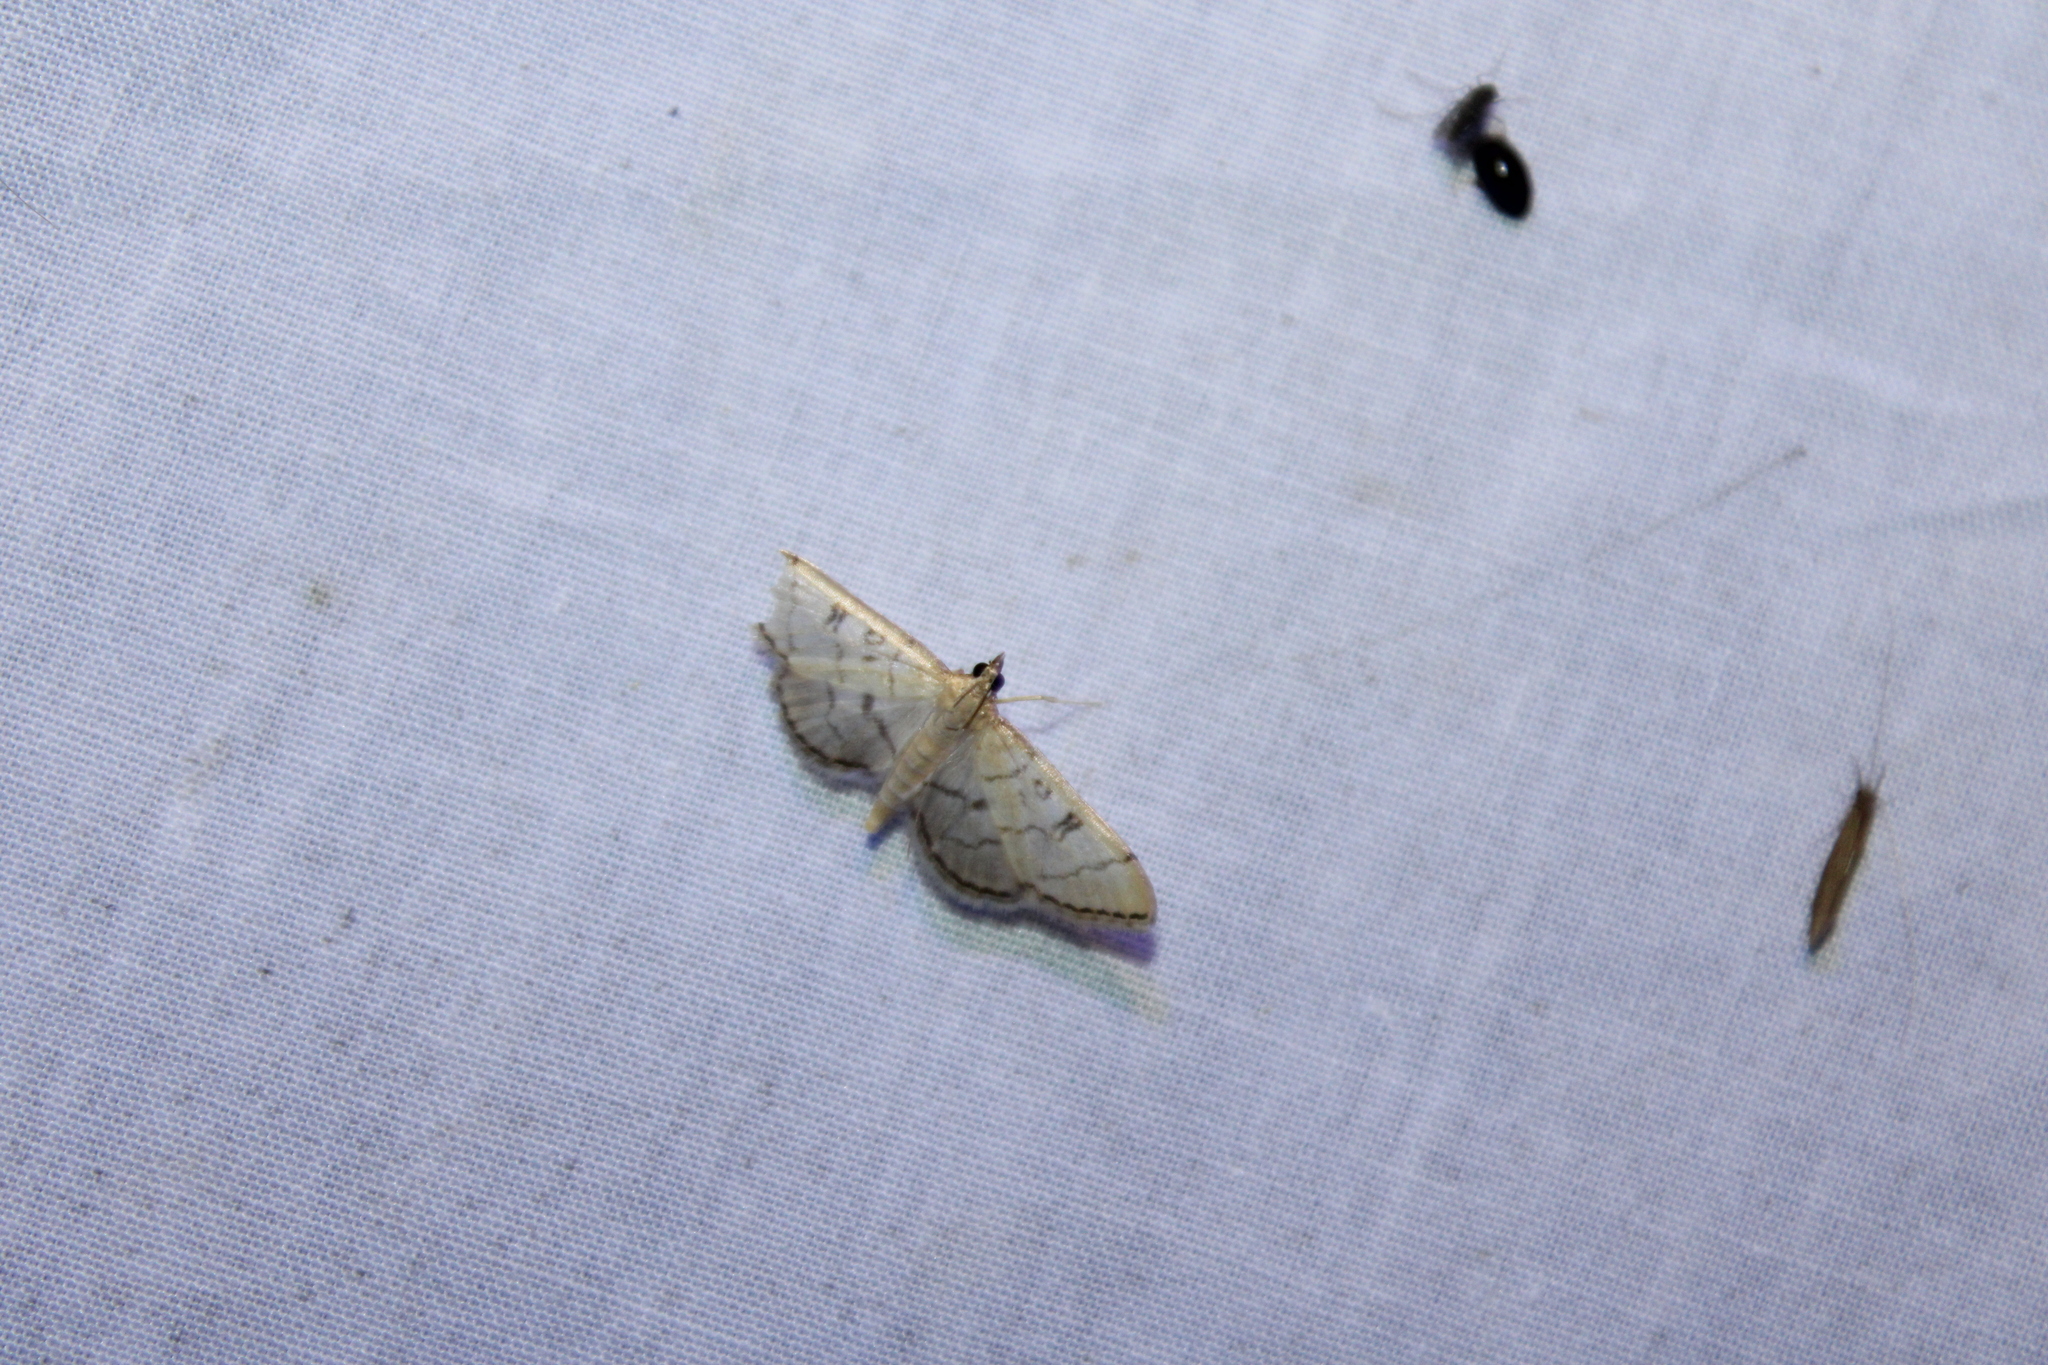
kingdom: Animalia
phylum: Arthropoda
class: Insecta
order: Lepidoptera
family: Crambidae
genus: Lamprosema
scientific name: Lamprosema Blepharomastix ranalis
